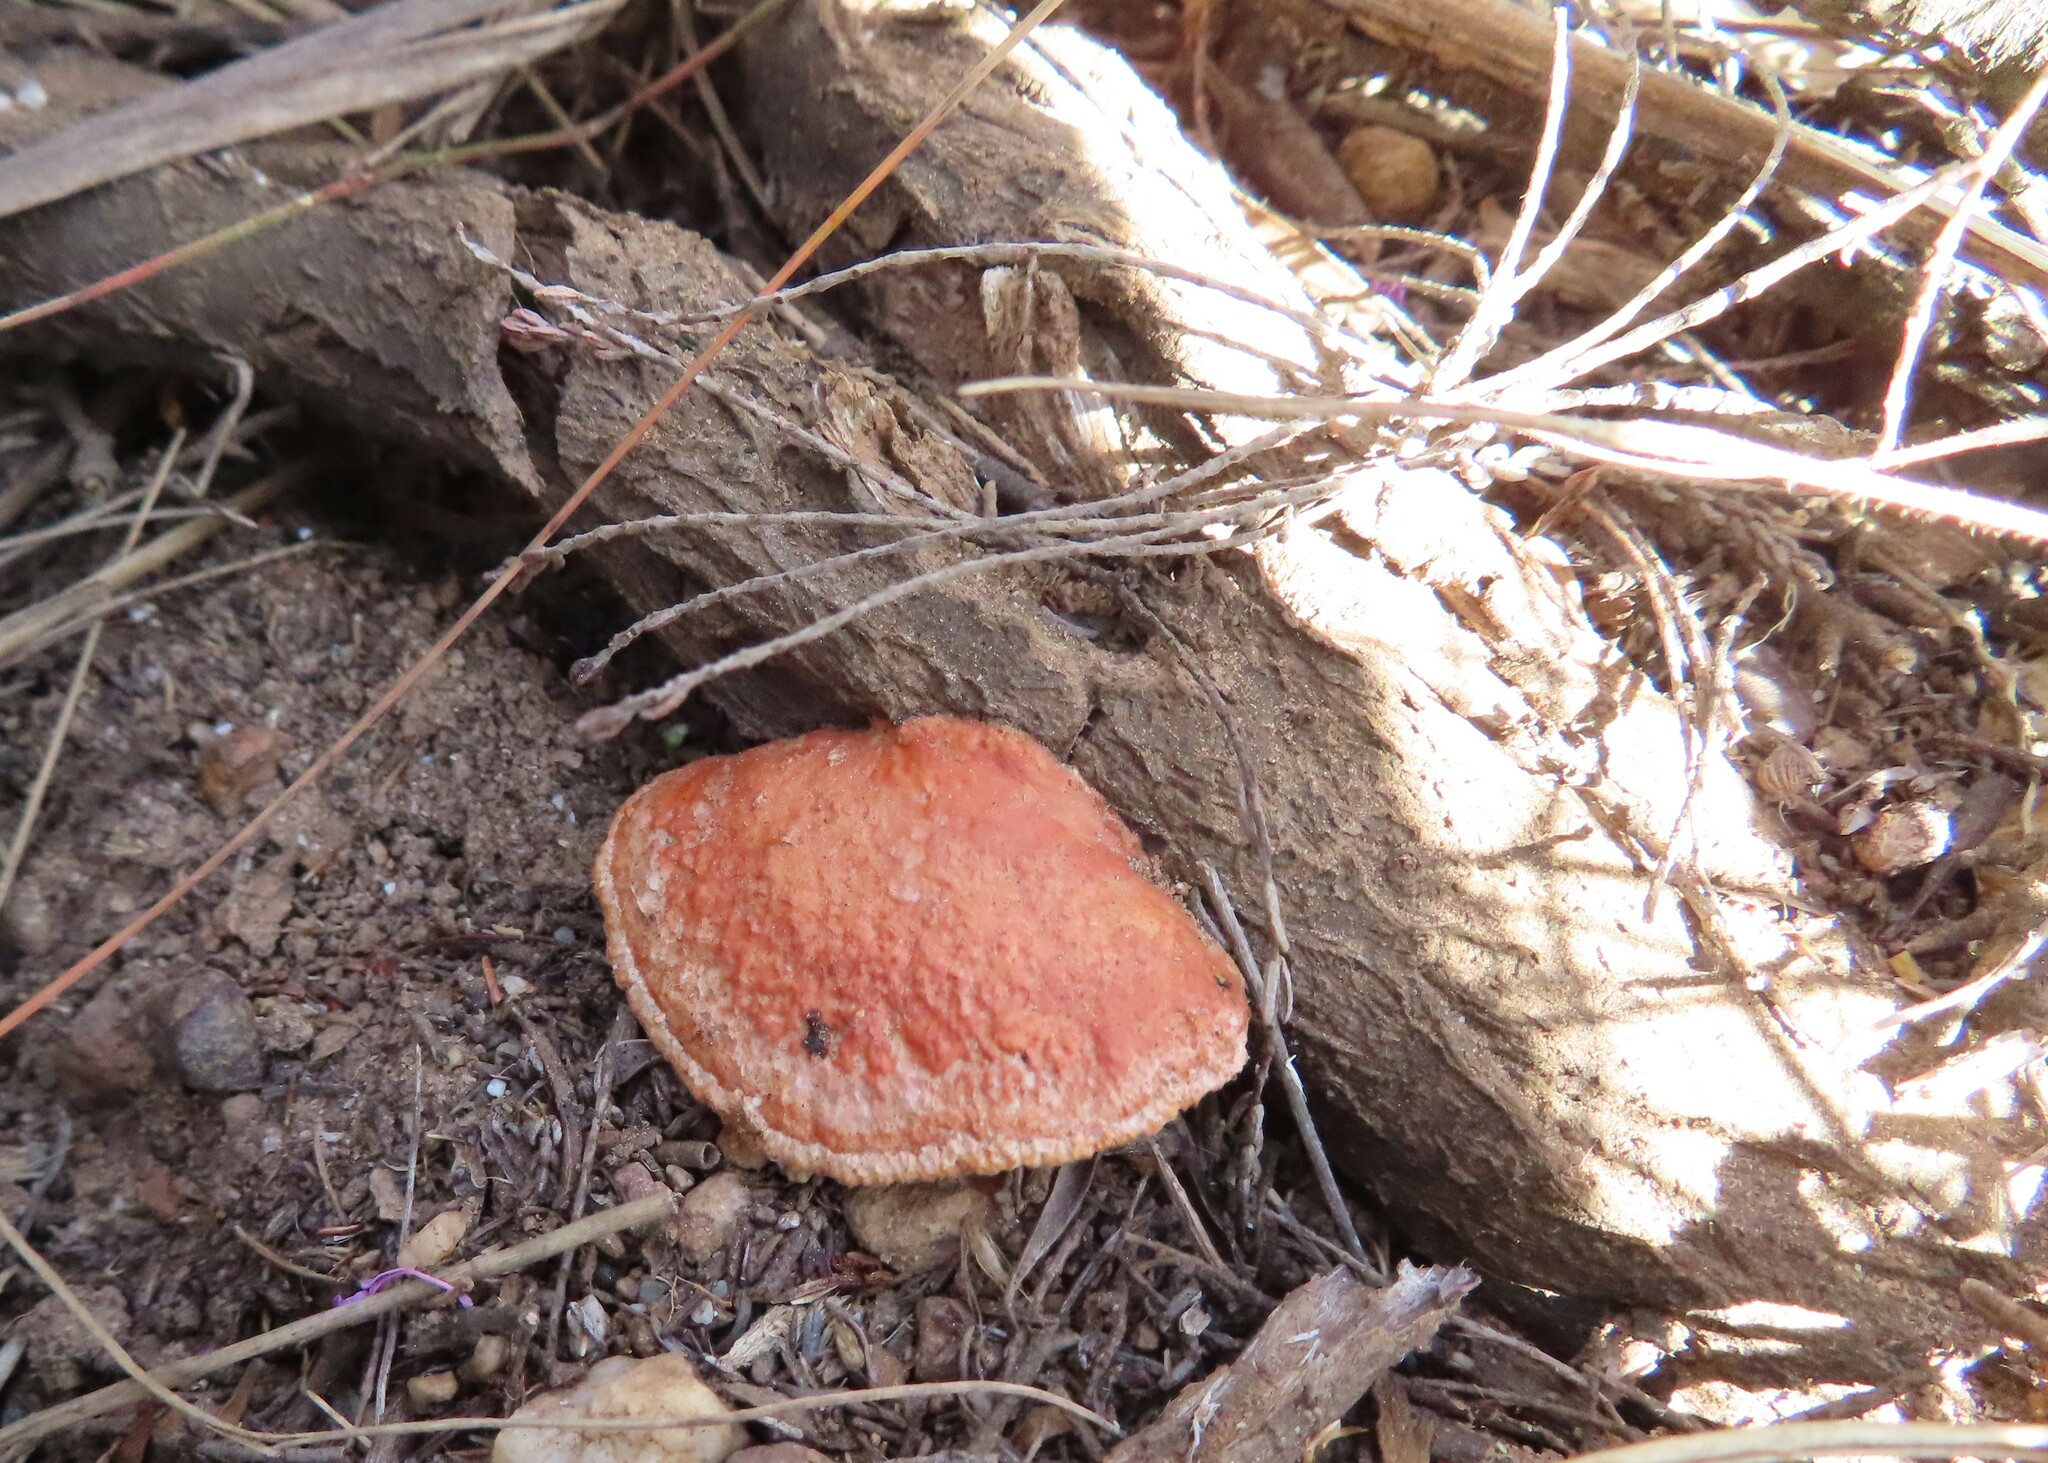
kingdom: Fungi
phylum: Basidiomycota
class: Agaricomycetes
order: Polyporales
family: Polyporaceae
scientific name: Polyporaceae
